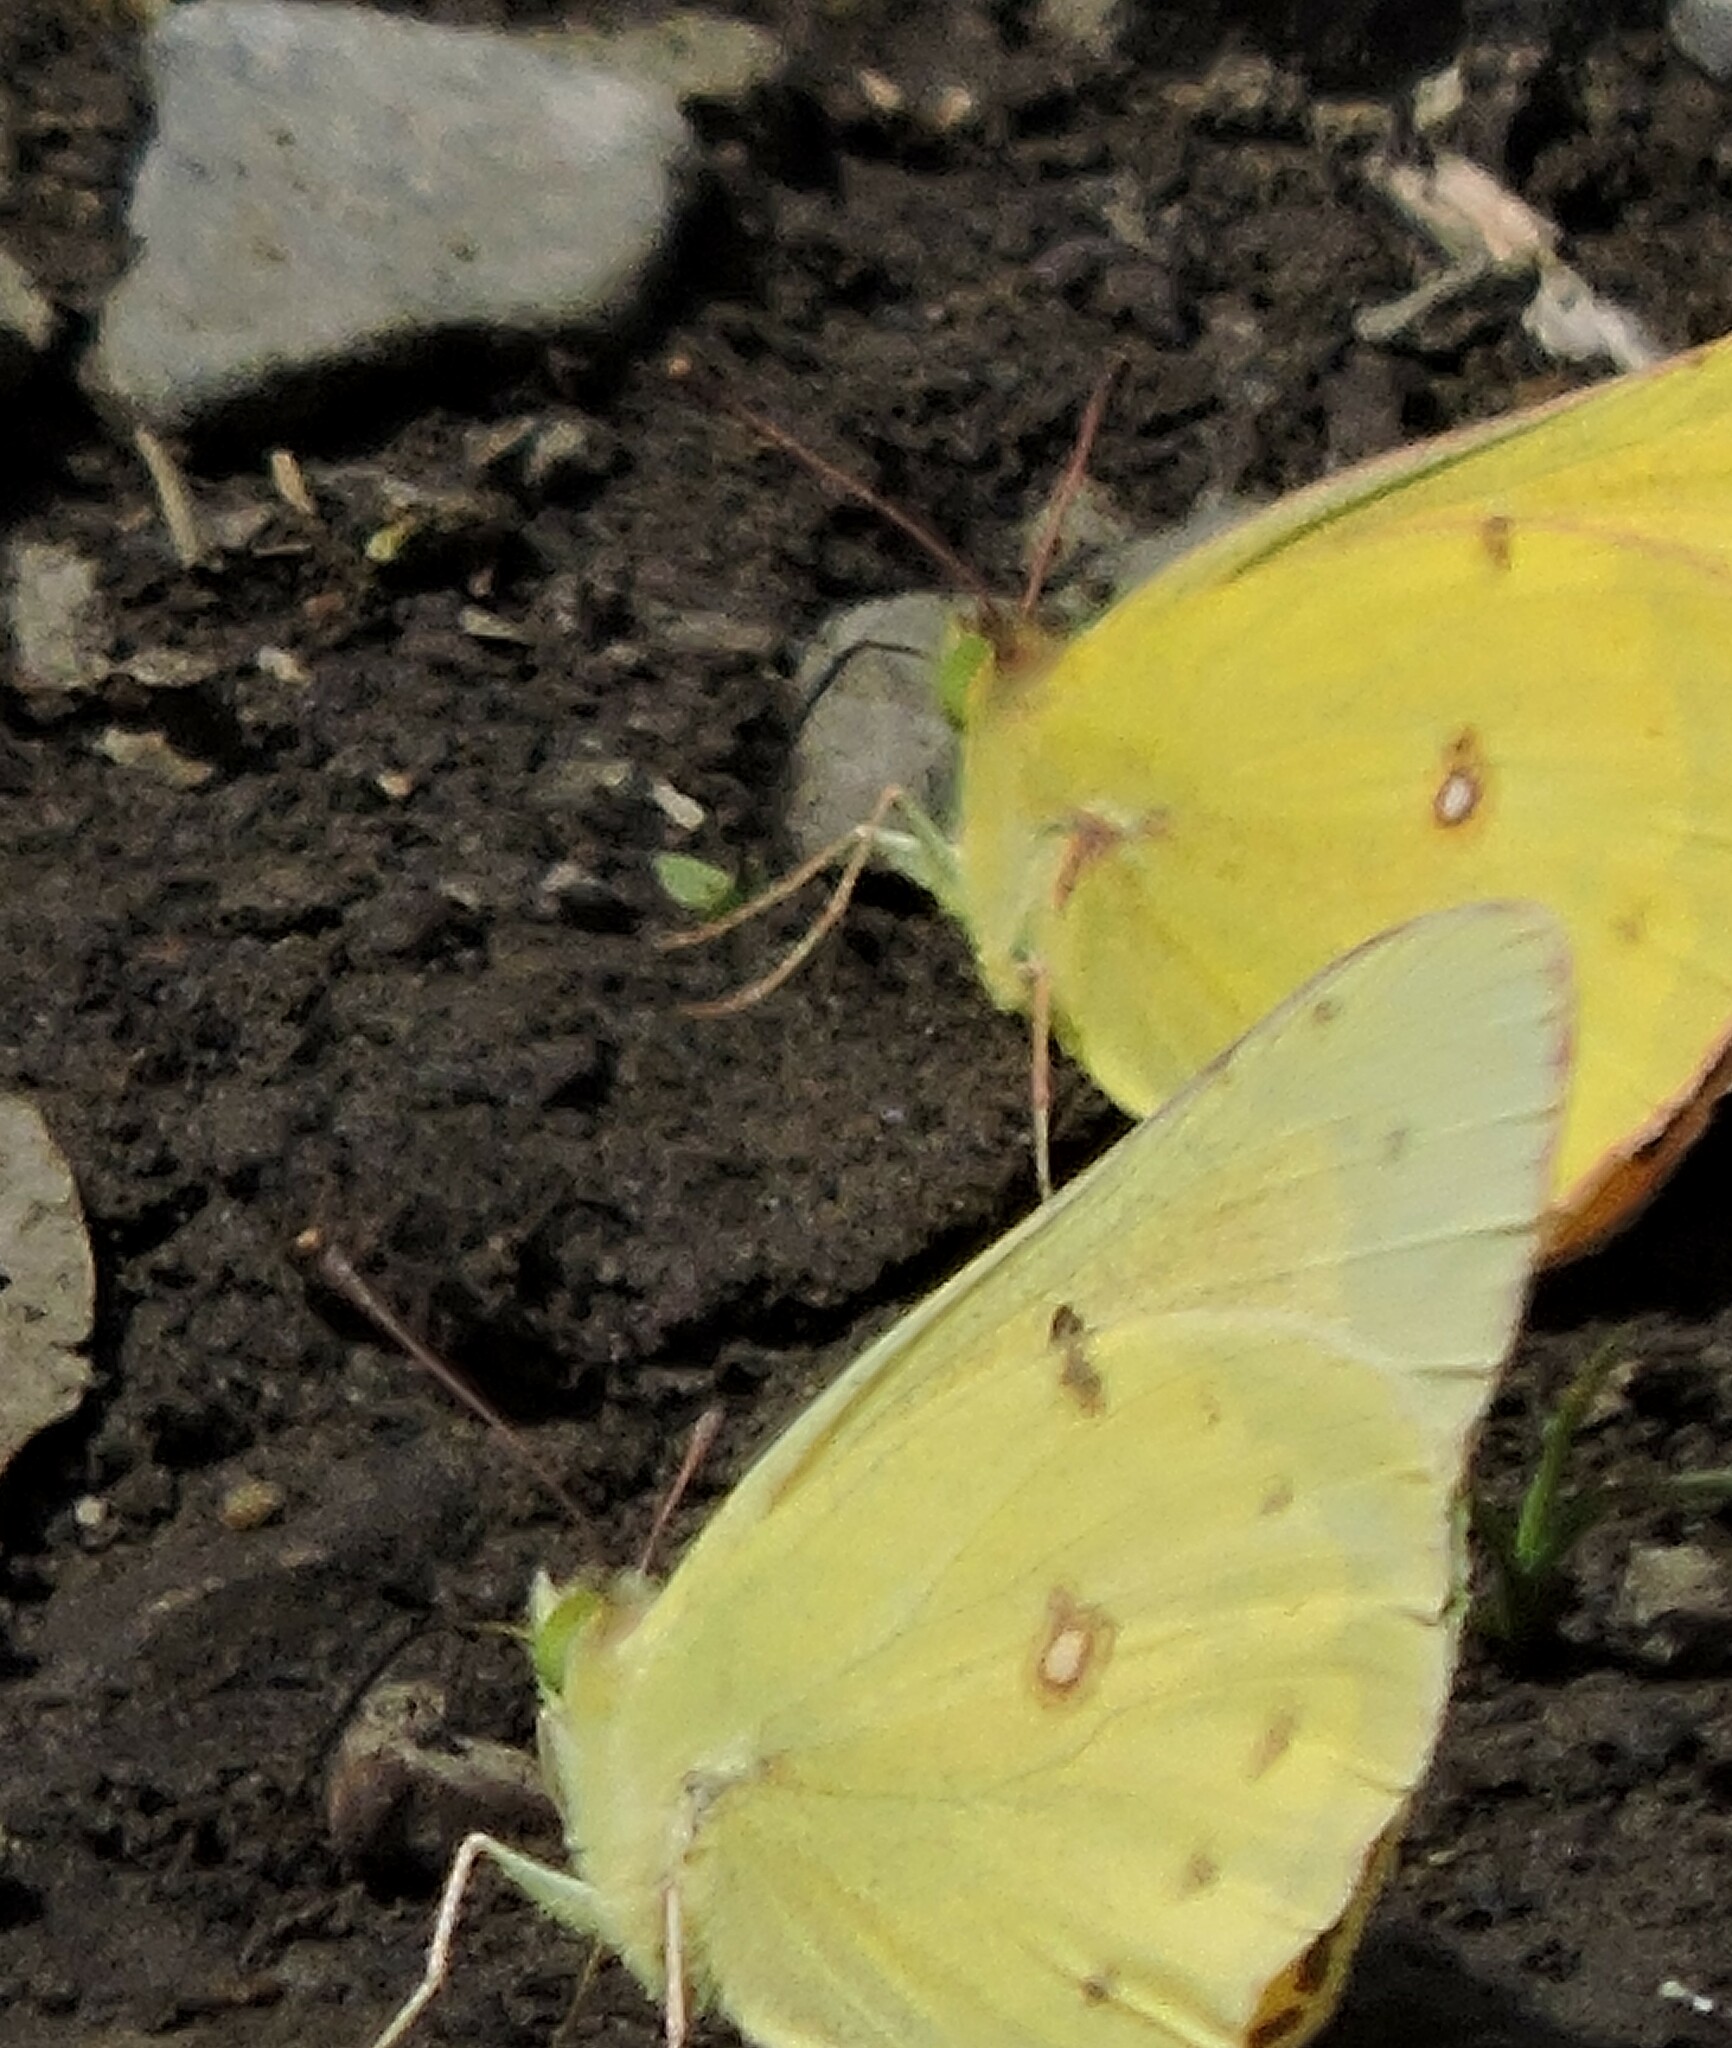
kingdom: Animalia
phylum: Arthropoda
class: Insecta
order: Lepidoptera
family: Pieridae
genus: Colias
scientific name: Colias eurytheme
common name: Alfalfa butterfly
